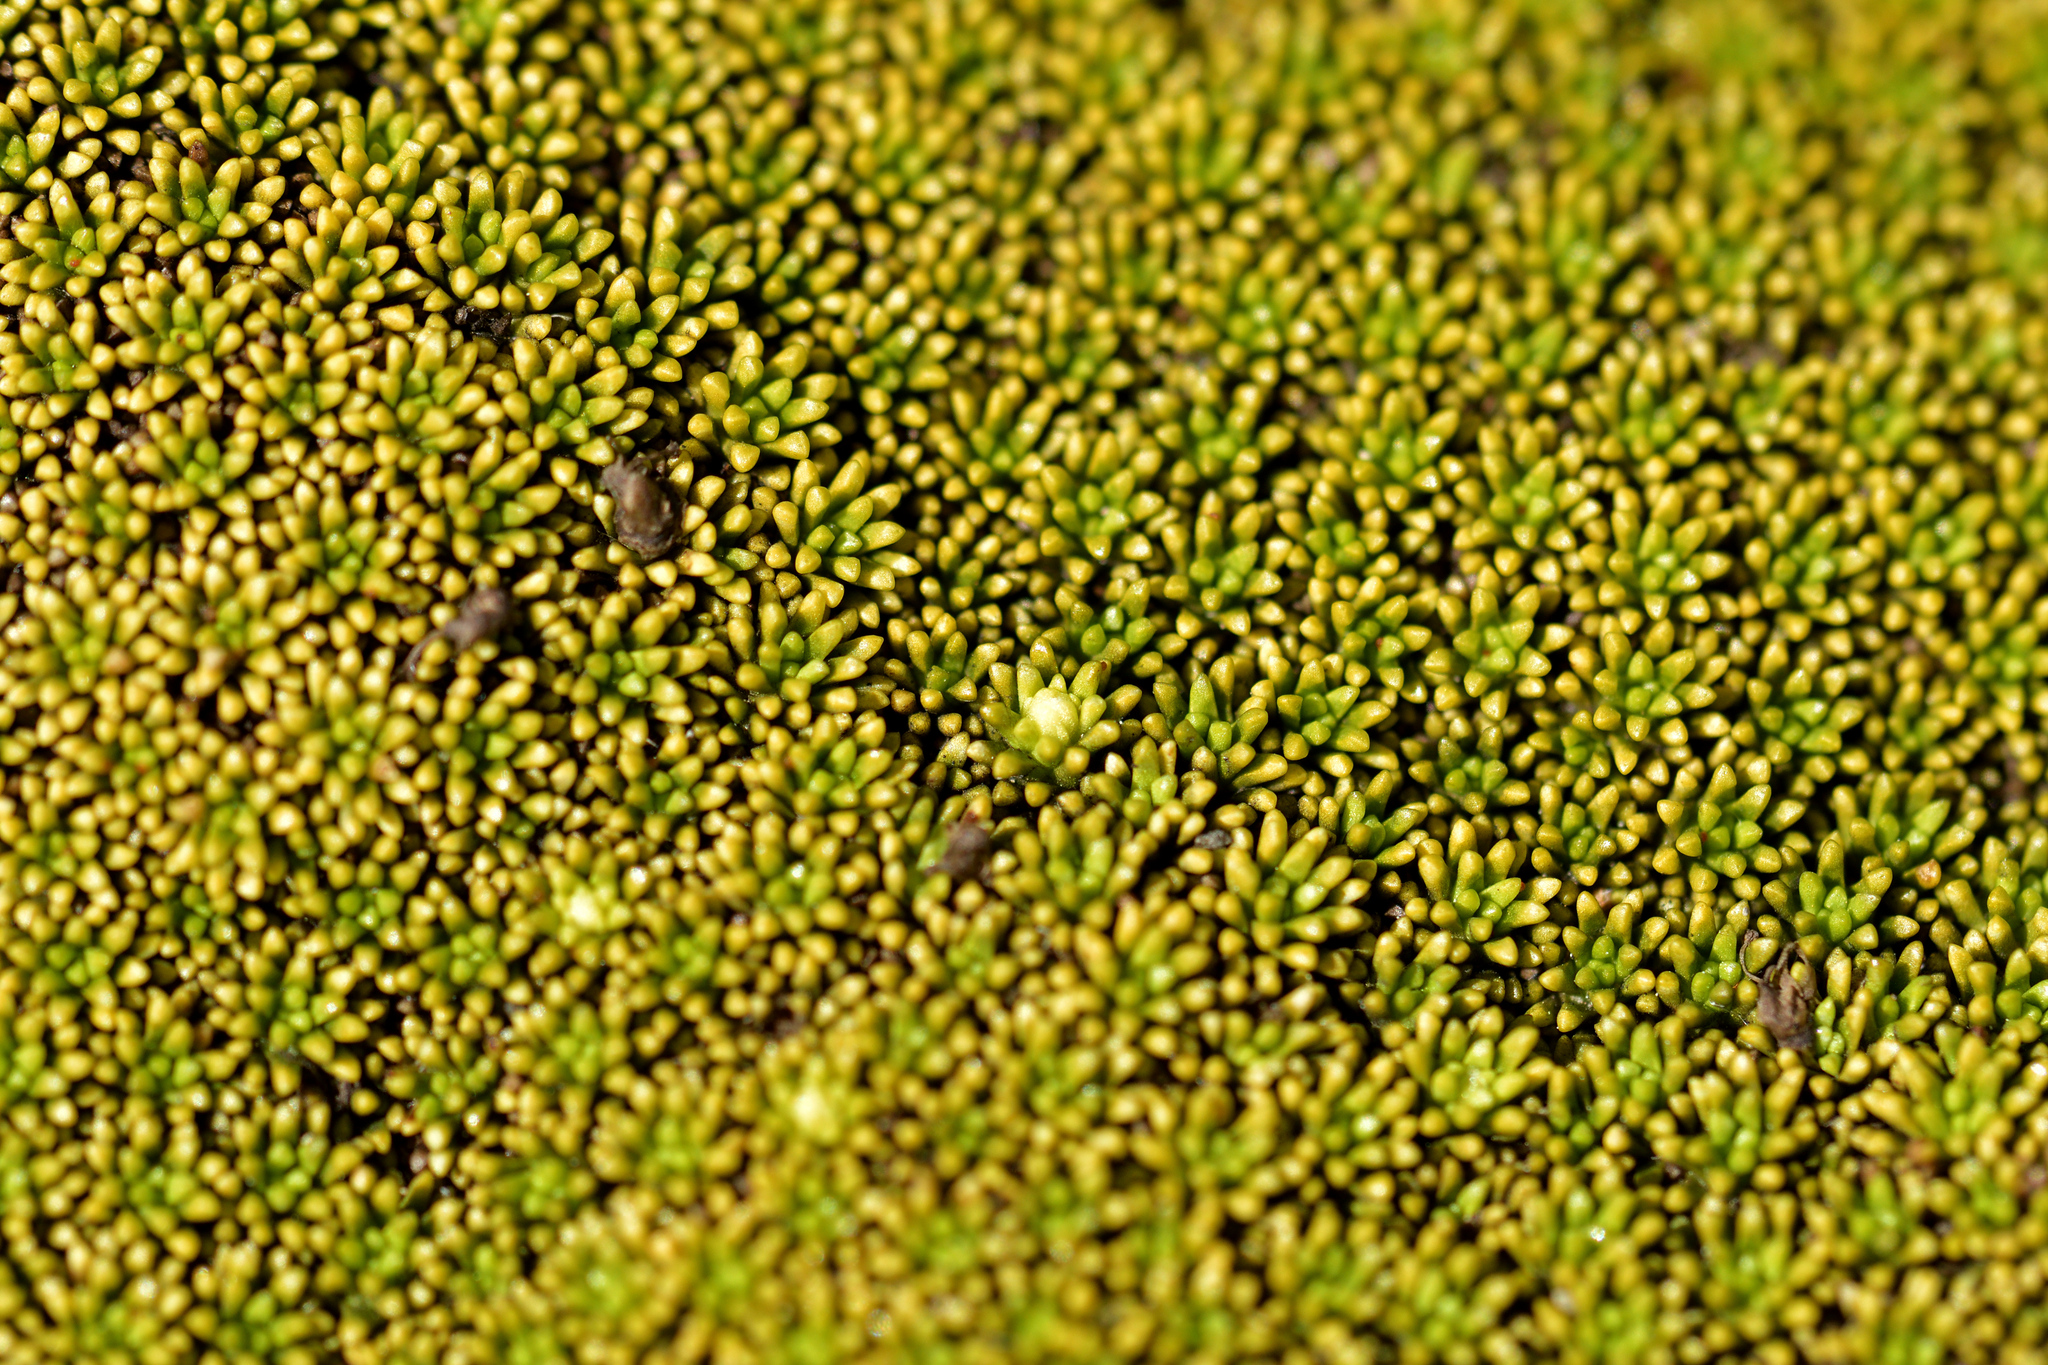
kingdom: Plantae
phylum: Tracheophyta
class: Magnoliopsida
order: Asterales
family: Stylidiaceae
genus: Phyllachne
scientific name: Phyllachne colensoi
